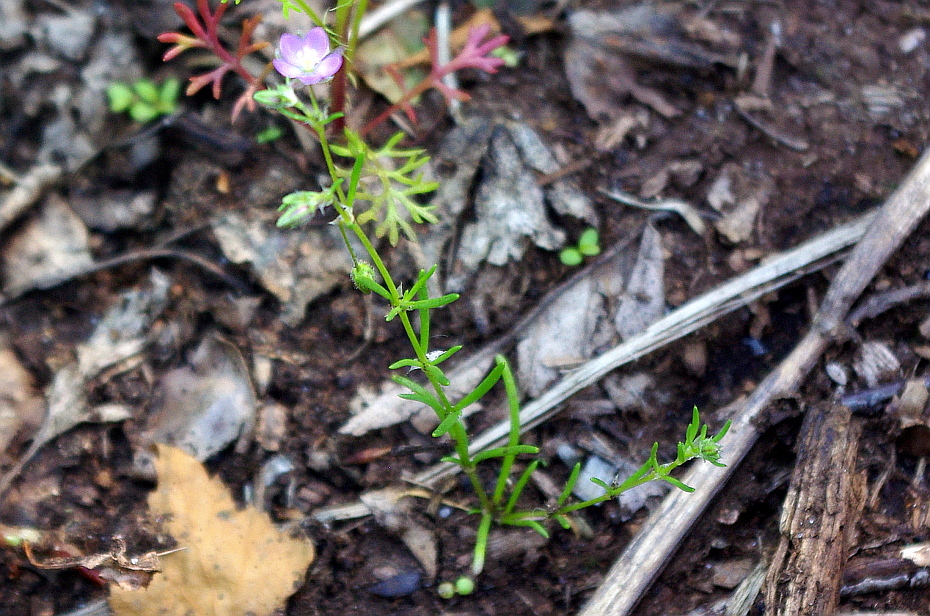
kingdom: Plantae
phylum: Tracheophyta
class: Magnoliopsida
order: Caryophyllales
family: Caryophyllaceae
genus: Spergularia
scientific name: Spergularia rubra
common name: Red sand-spurrey
